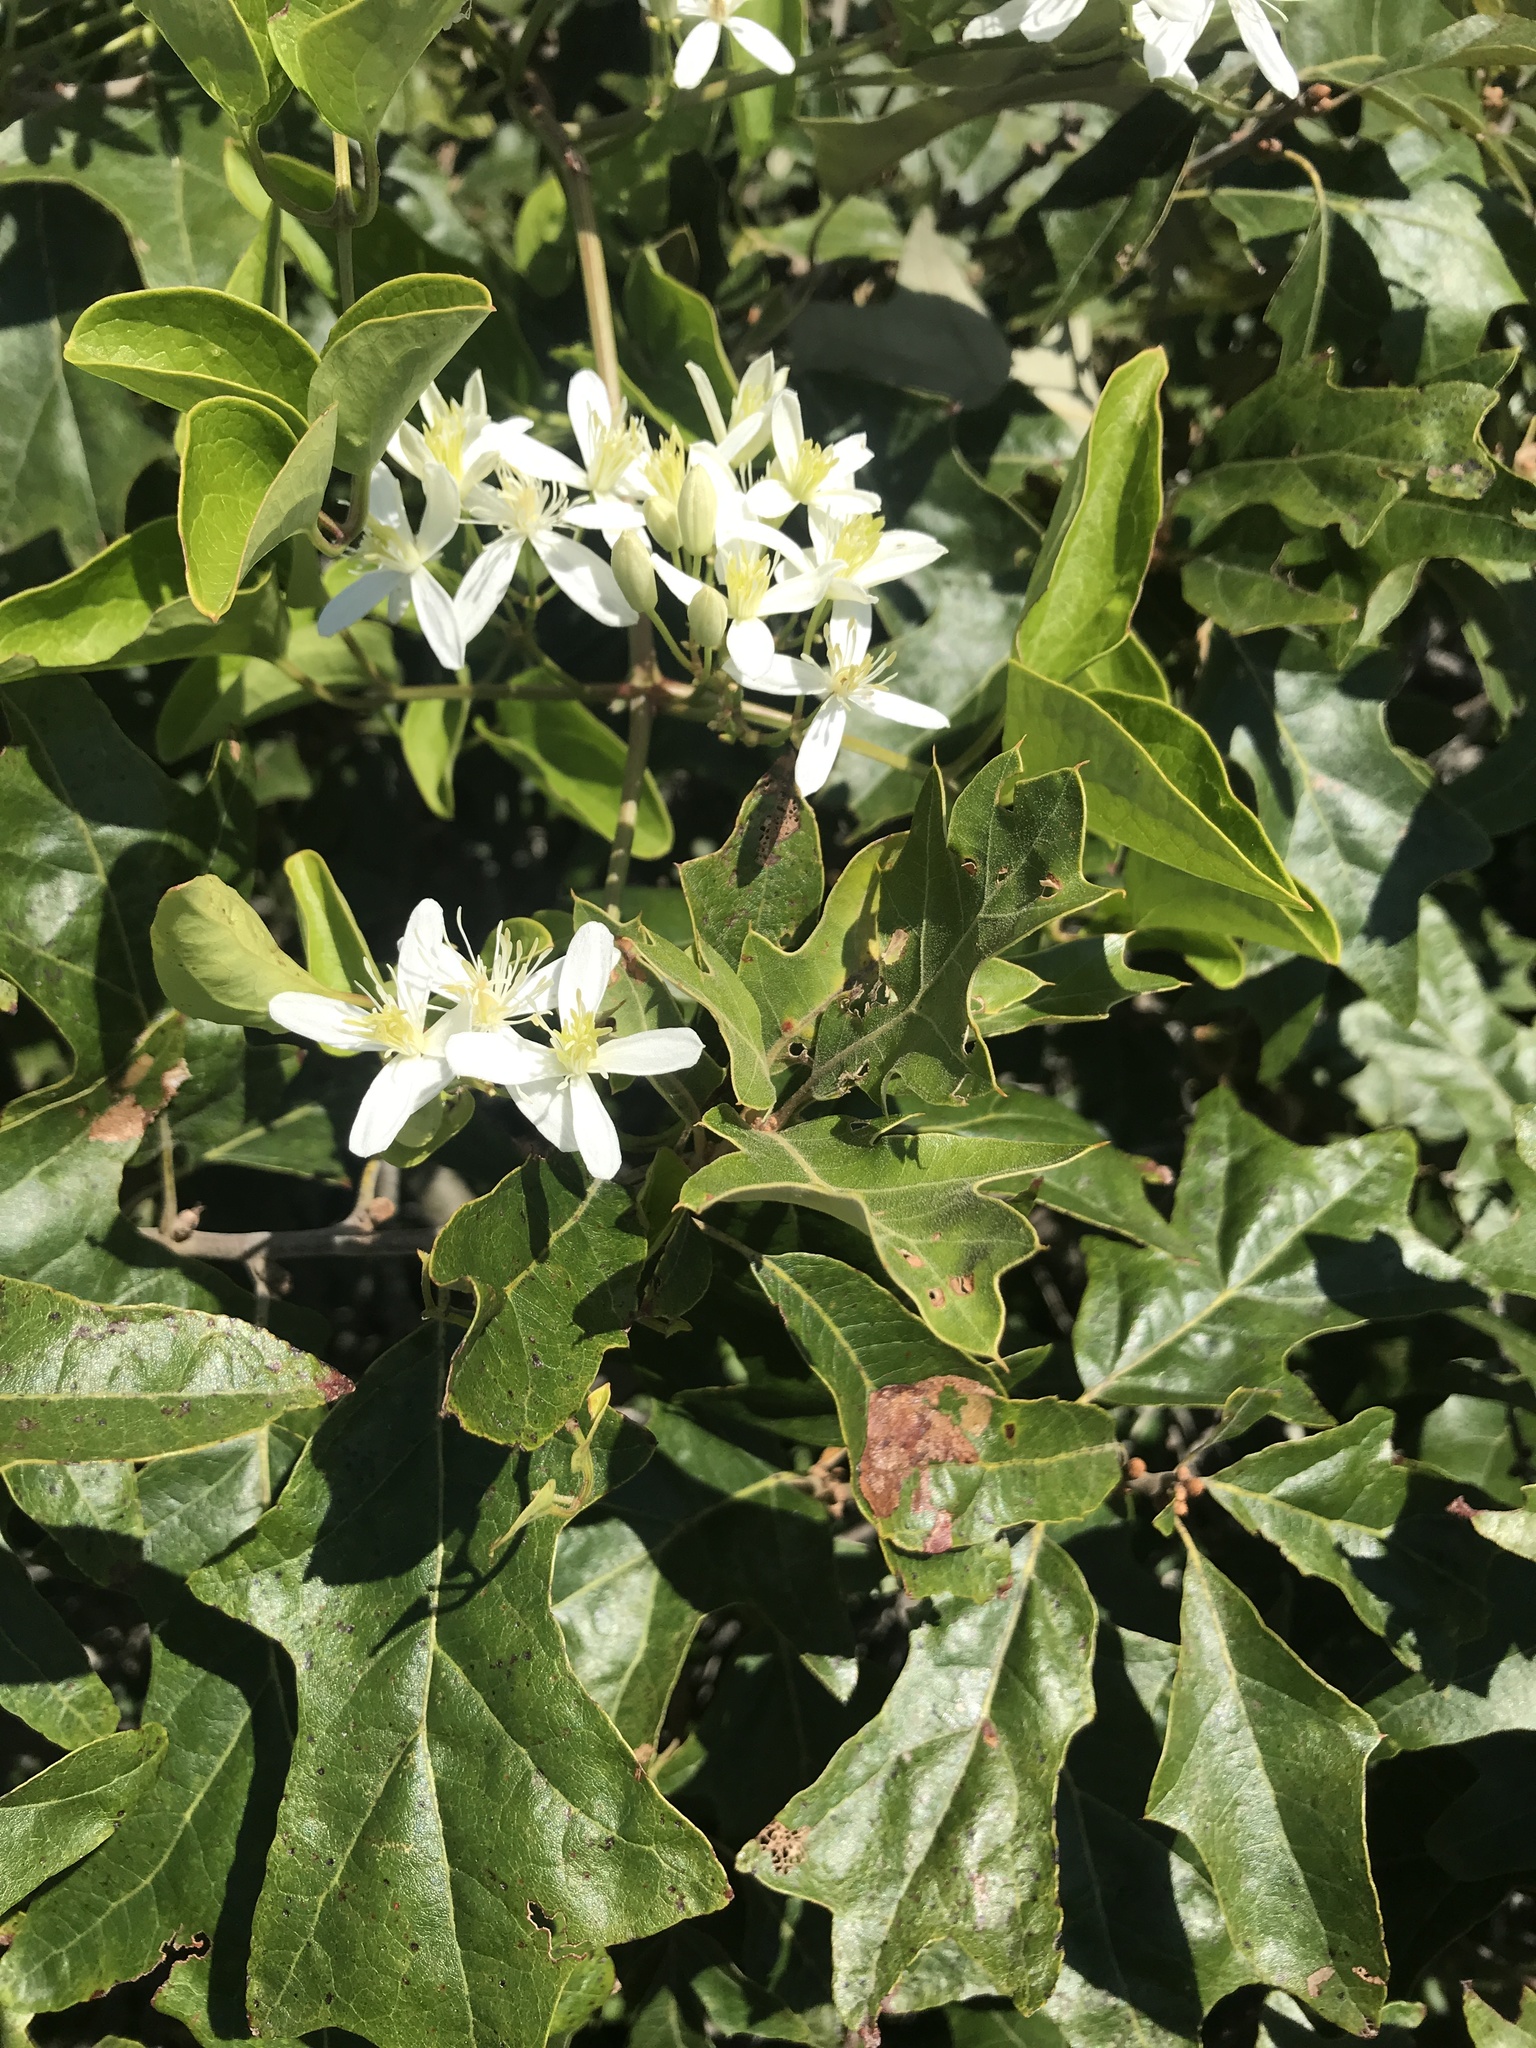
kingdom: Plantae
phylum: Tracheophyta
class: Magnoliopsida
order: Ranunculales
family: Ranunculaceae
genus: Clematis
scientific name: Clematis terniflora
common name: Sweet autumn clematis
